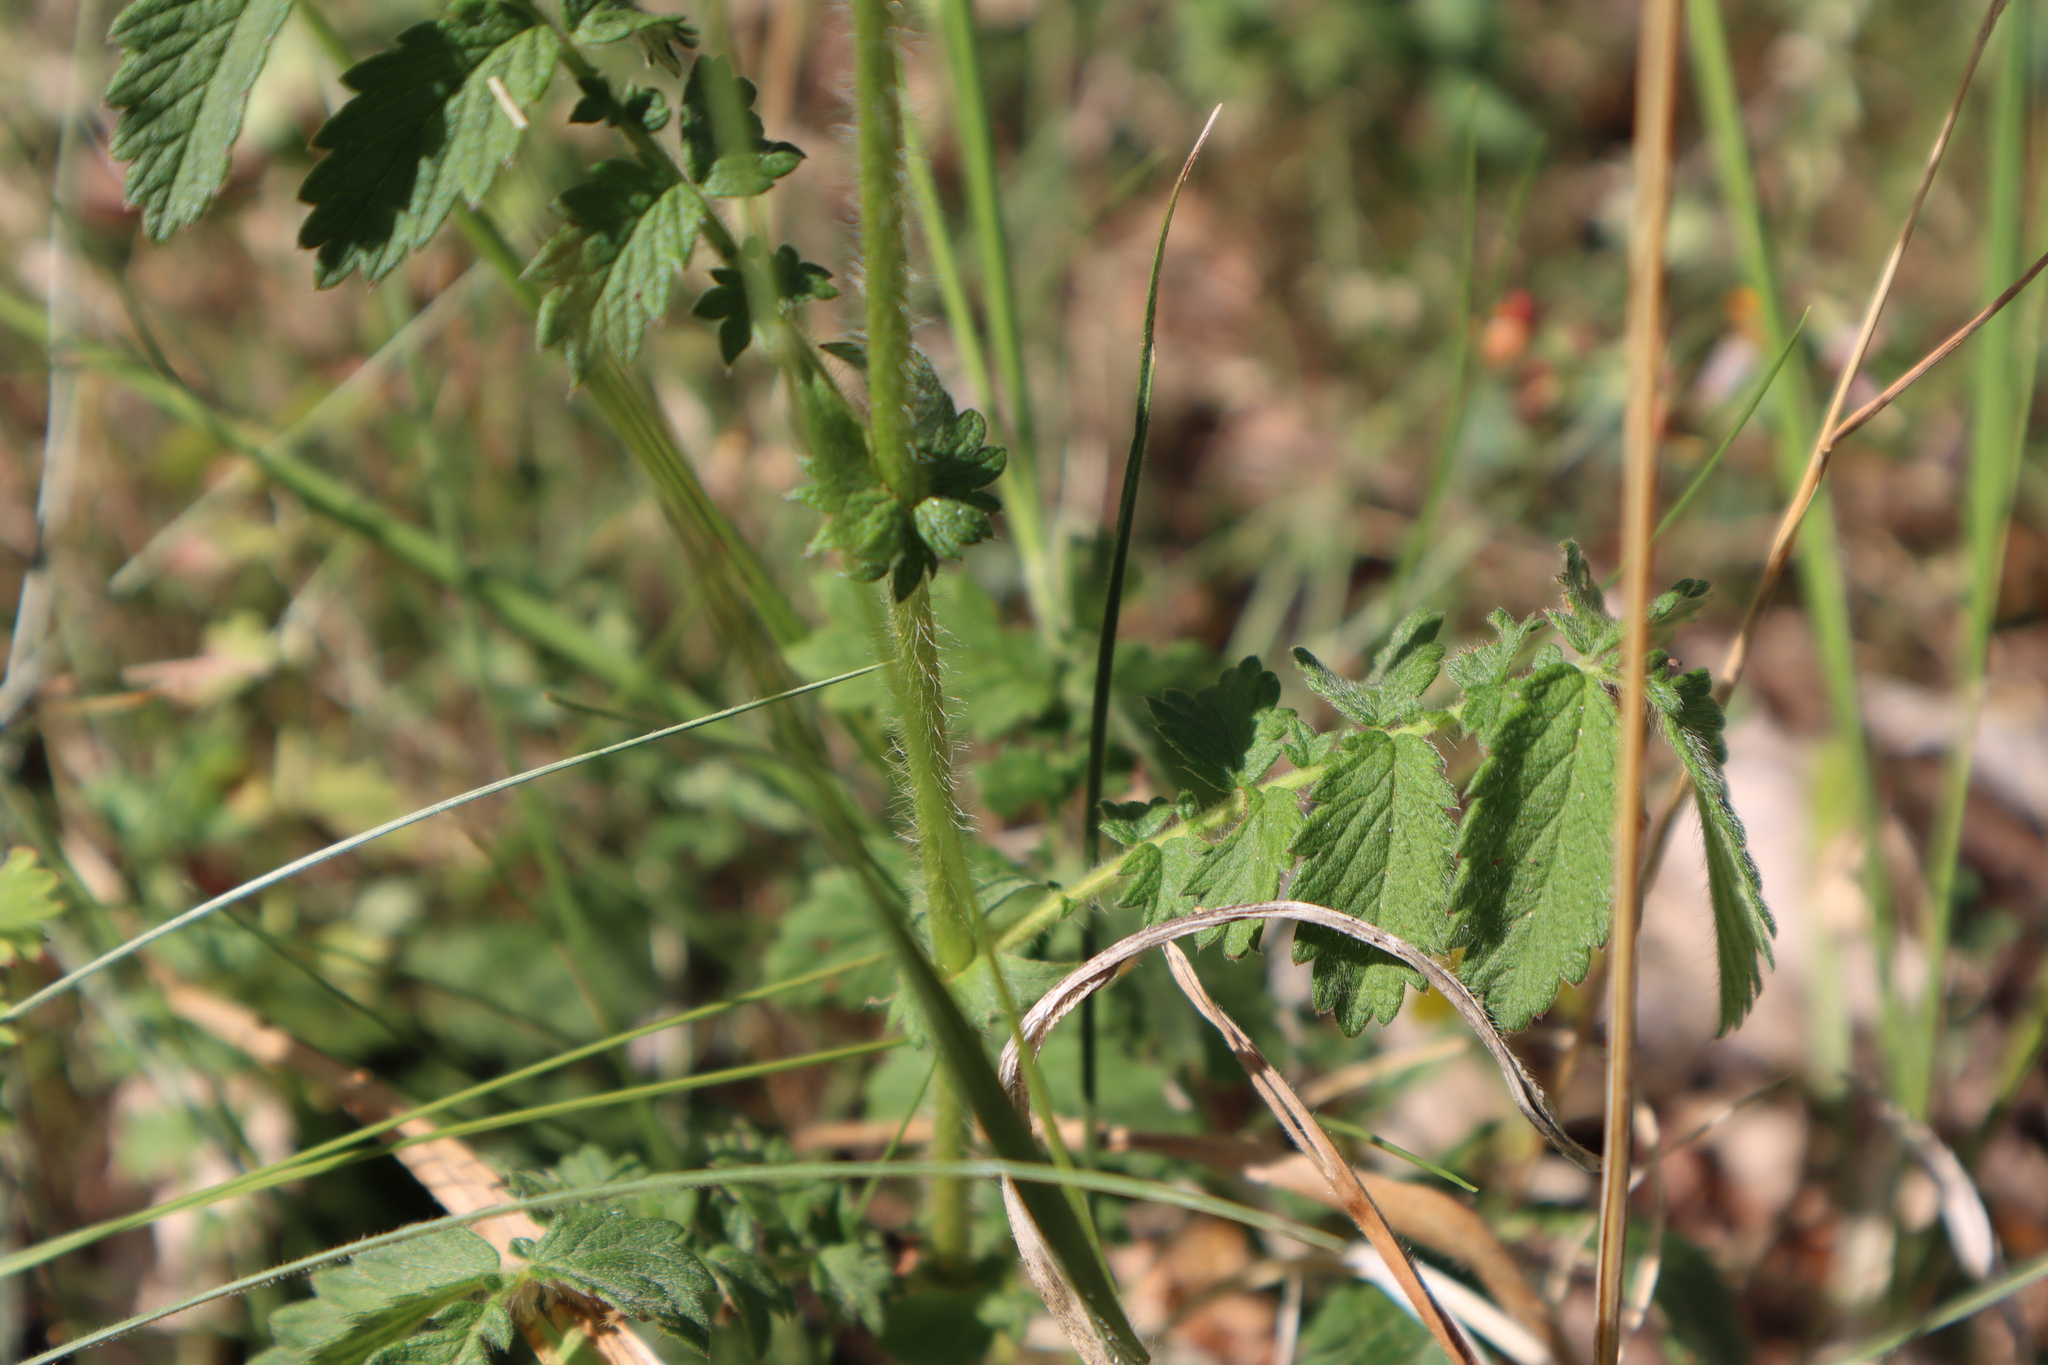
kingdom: Plantae
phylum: Tracheophyta
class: Magnoliopsida
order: Rosales
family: Rosaceae
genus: Agrimonia
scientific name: Agrimonia eupatoria
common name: Agrimony
